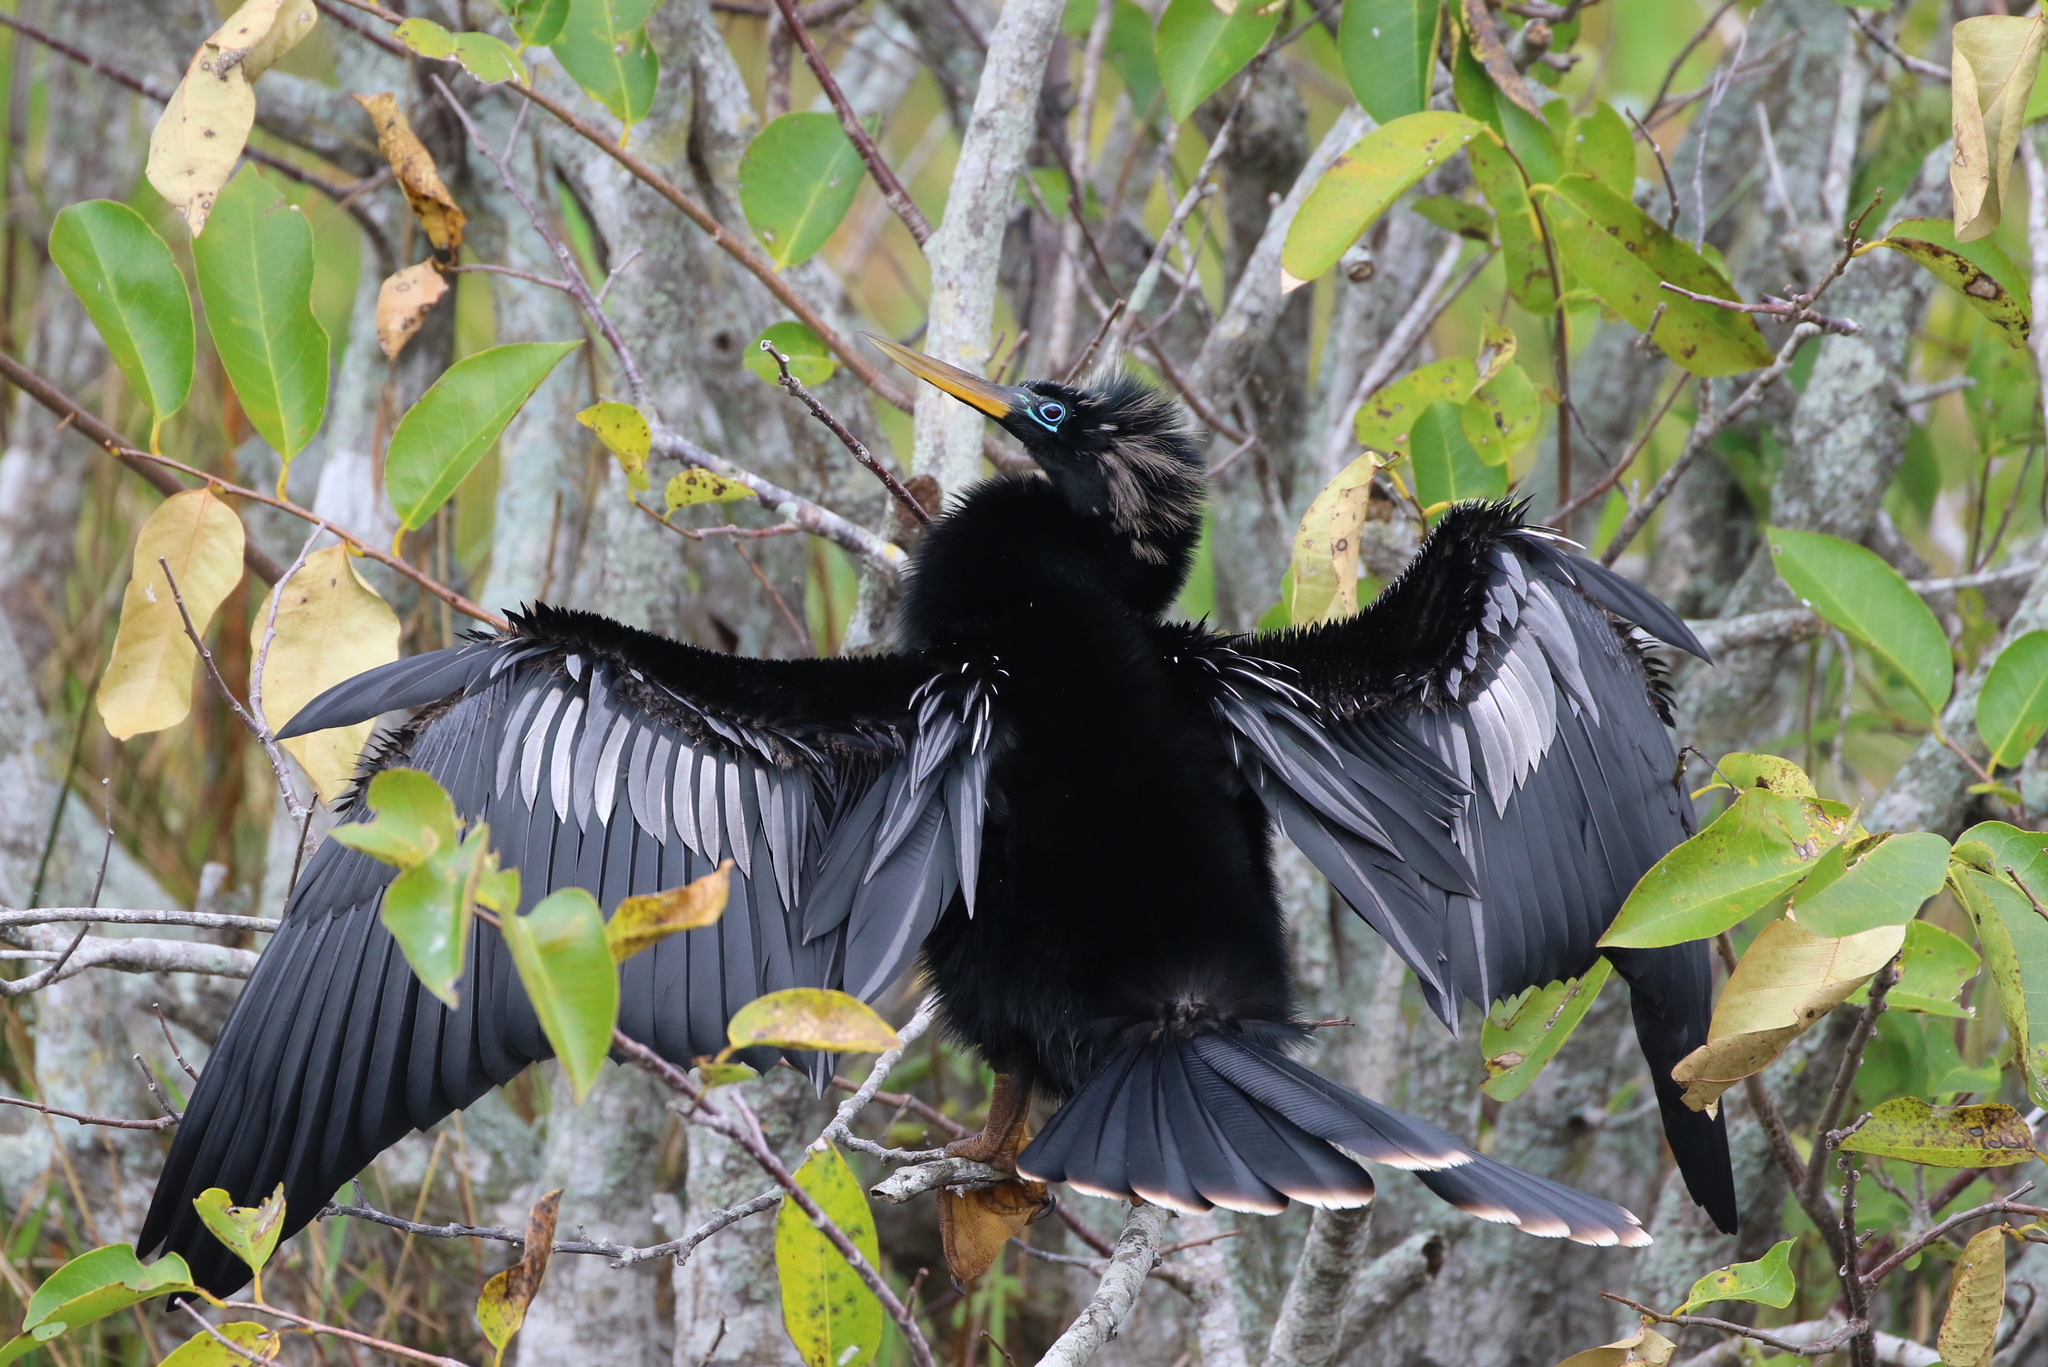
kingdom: Animalia
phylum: Chordata
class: Aves
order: Suliformes
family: Anhingidae
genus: Anhinga
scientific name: Anhinga anhinga
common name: Anhinga
